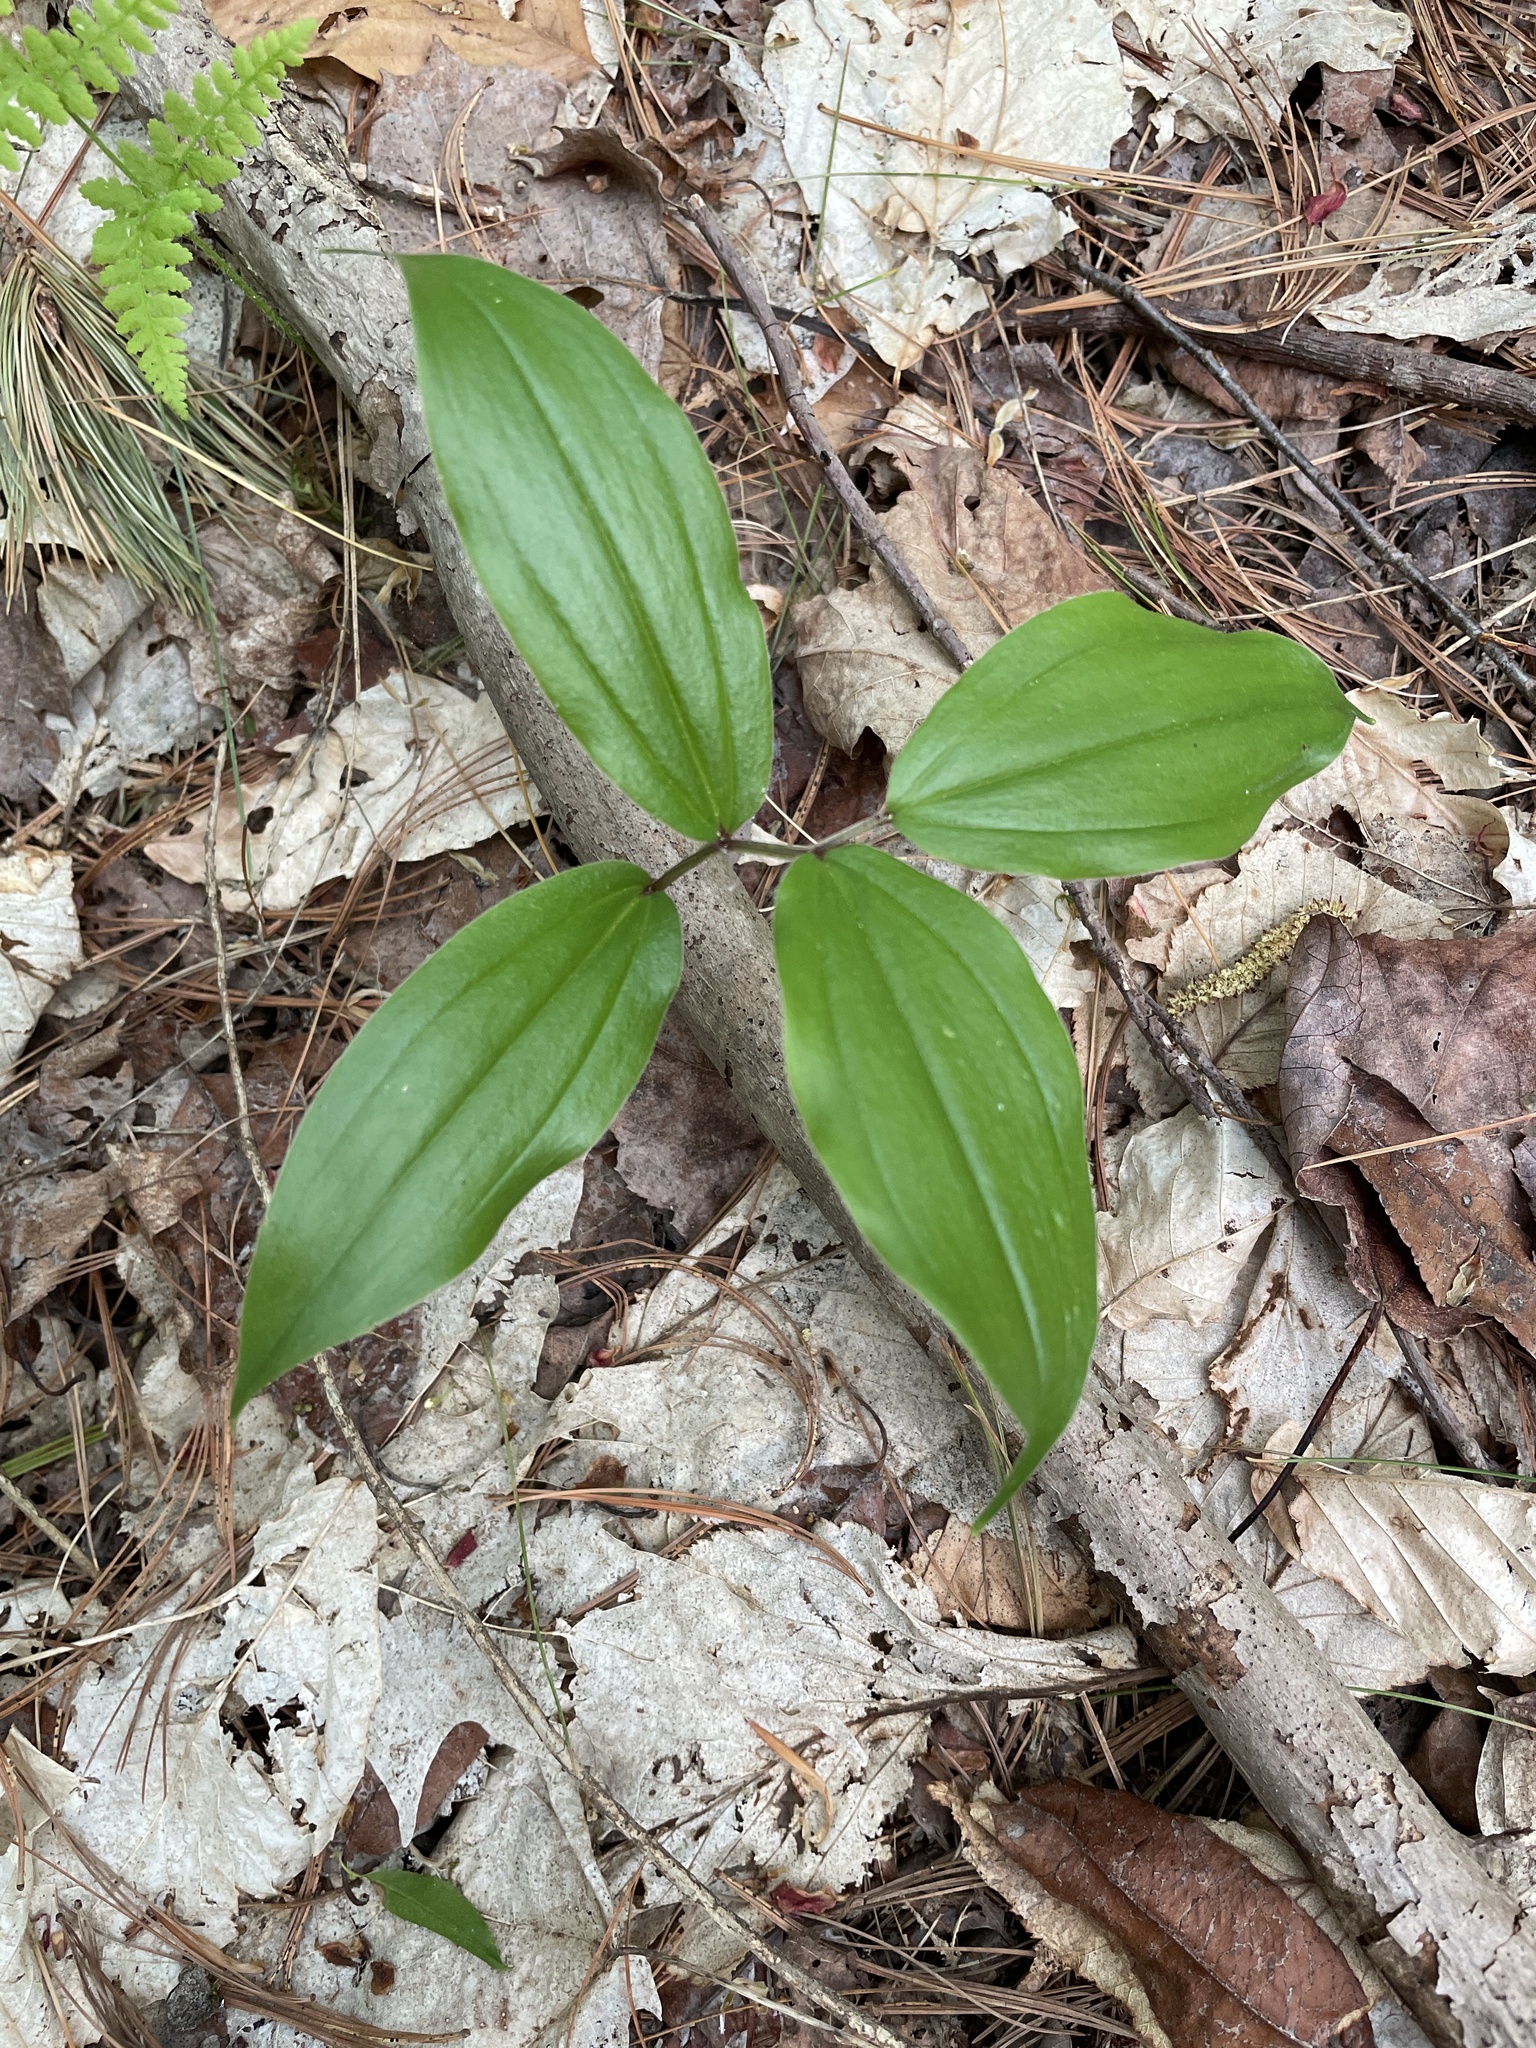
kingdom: Plantae
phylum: Tracheophyta
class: Liliopsida
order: Asparagales
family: Asparagaceae
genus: Maianthemum
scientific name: Maianthemum racemosum
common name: False spikenard
